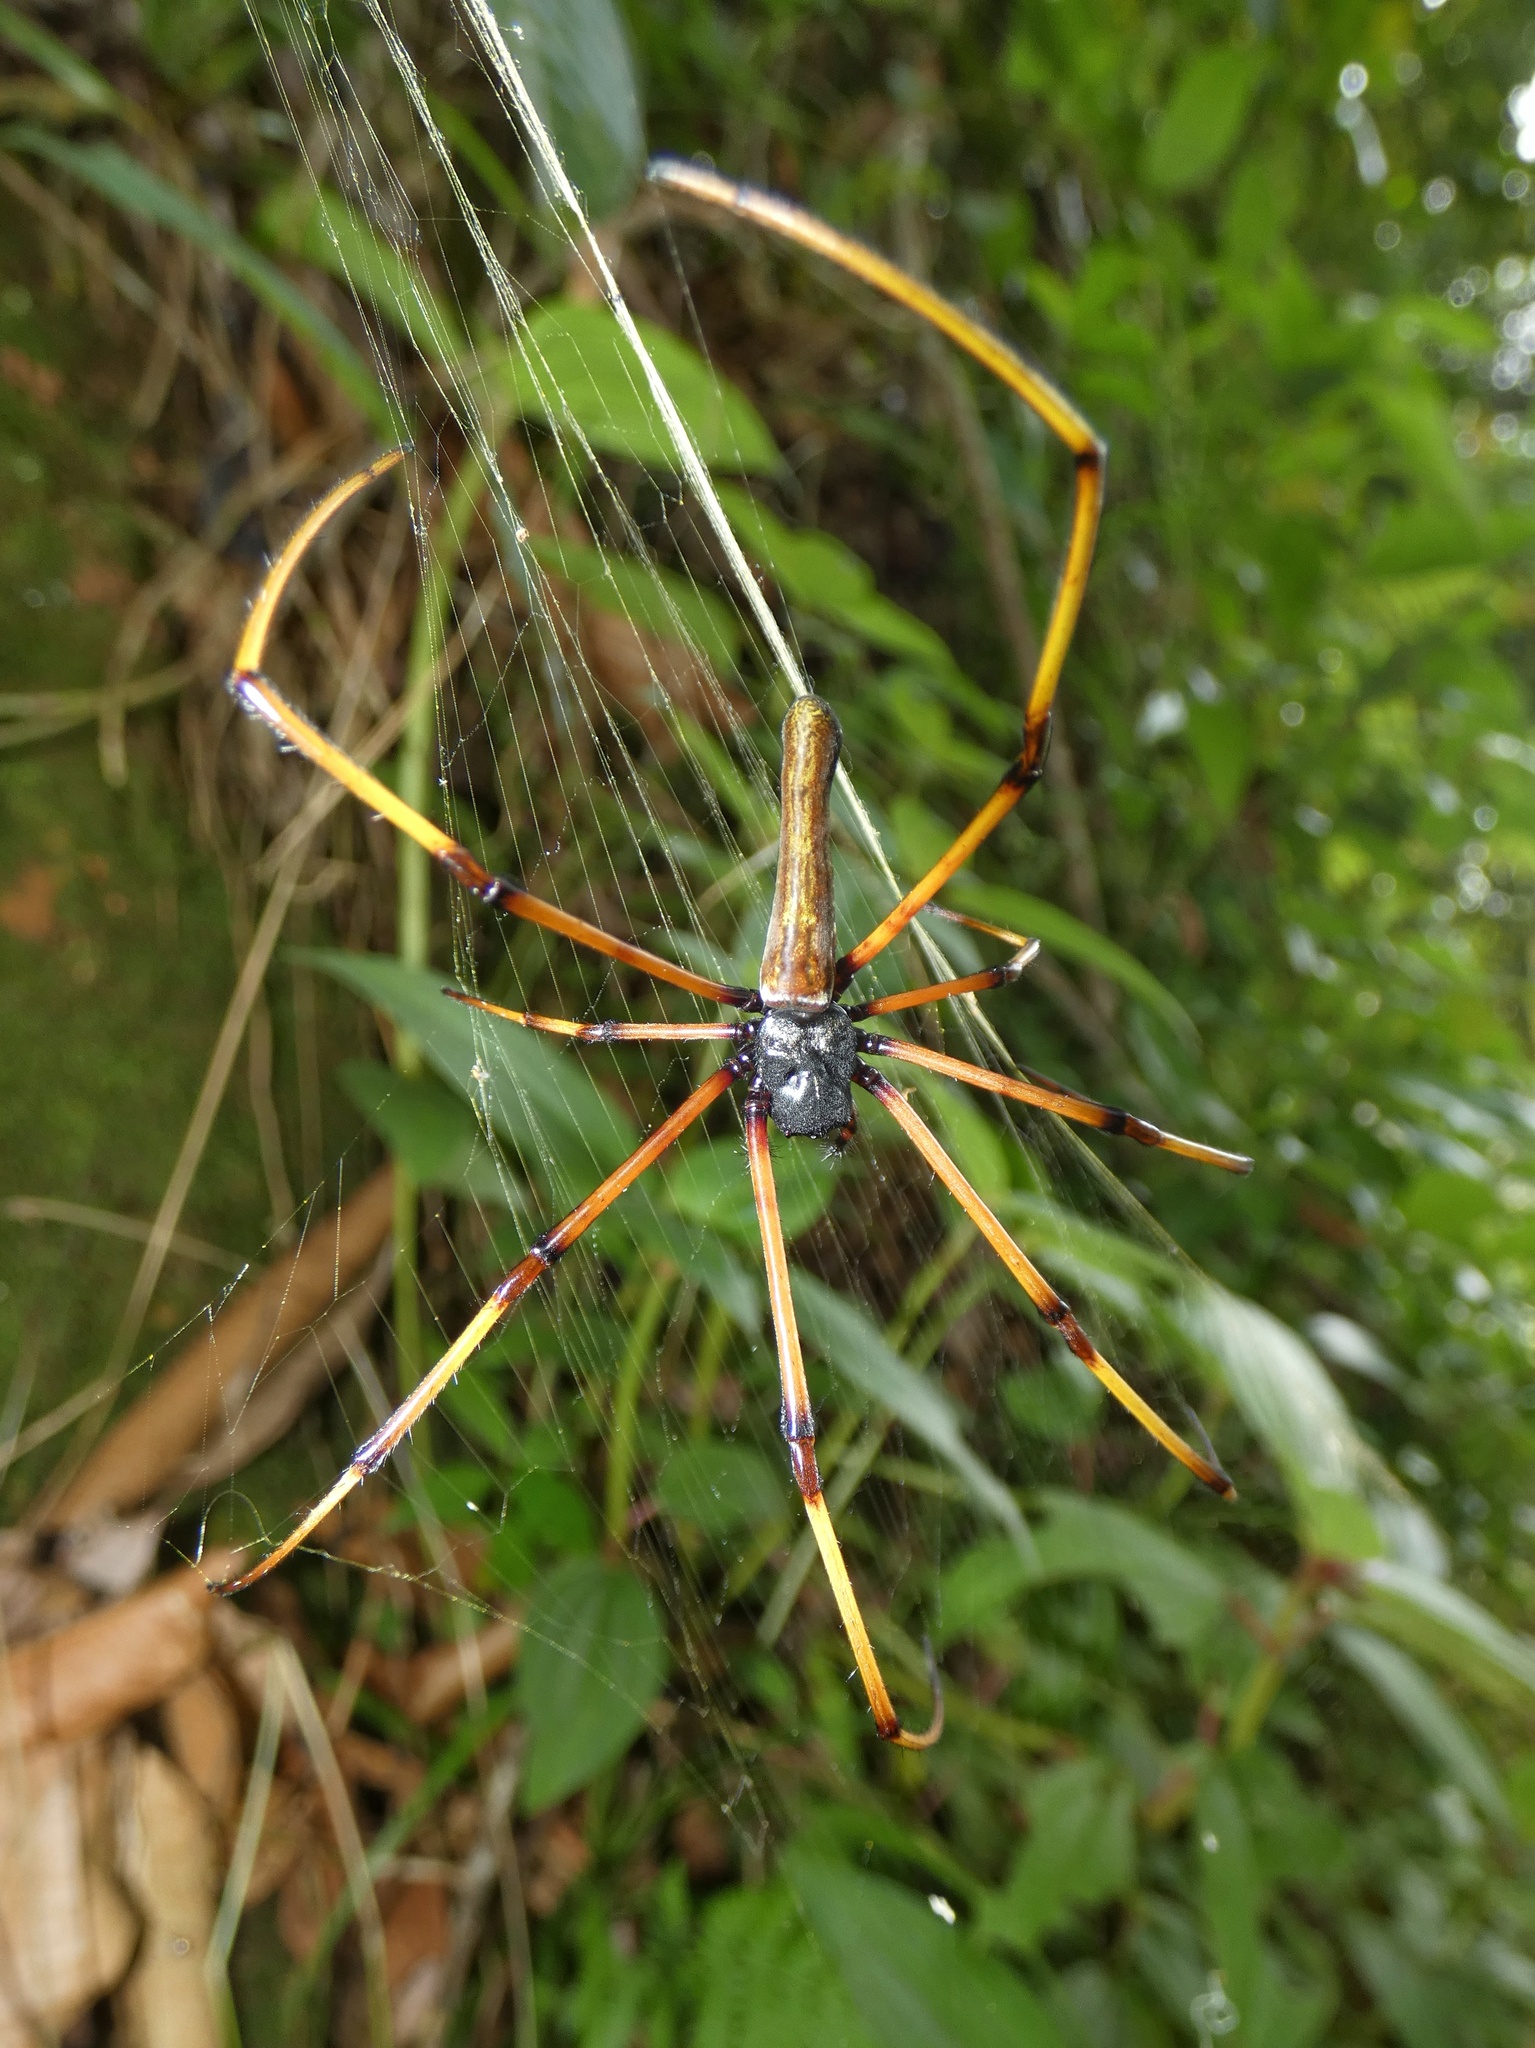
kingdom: Animalia
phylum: Arthropoda
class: Arachnida
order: Araneae
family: Araneidae
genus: Nephila
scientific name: Nephila pilipes
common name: Giant golden orb weaver
